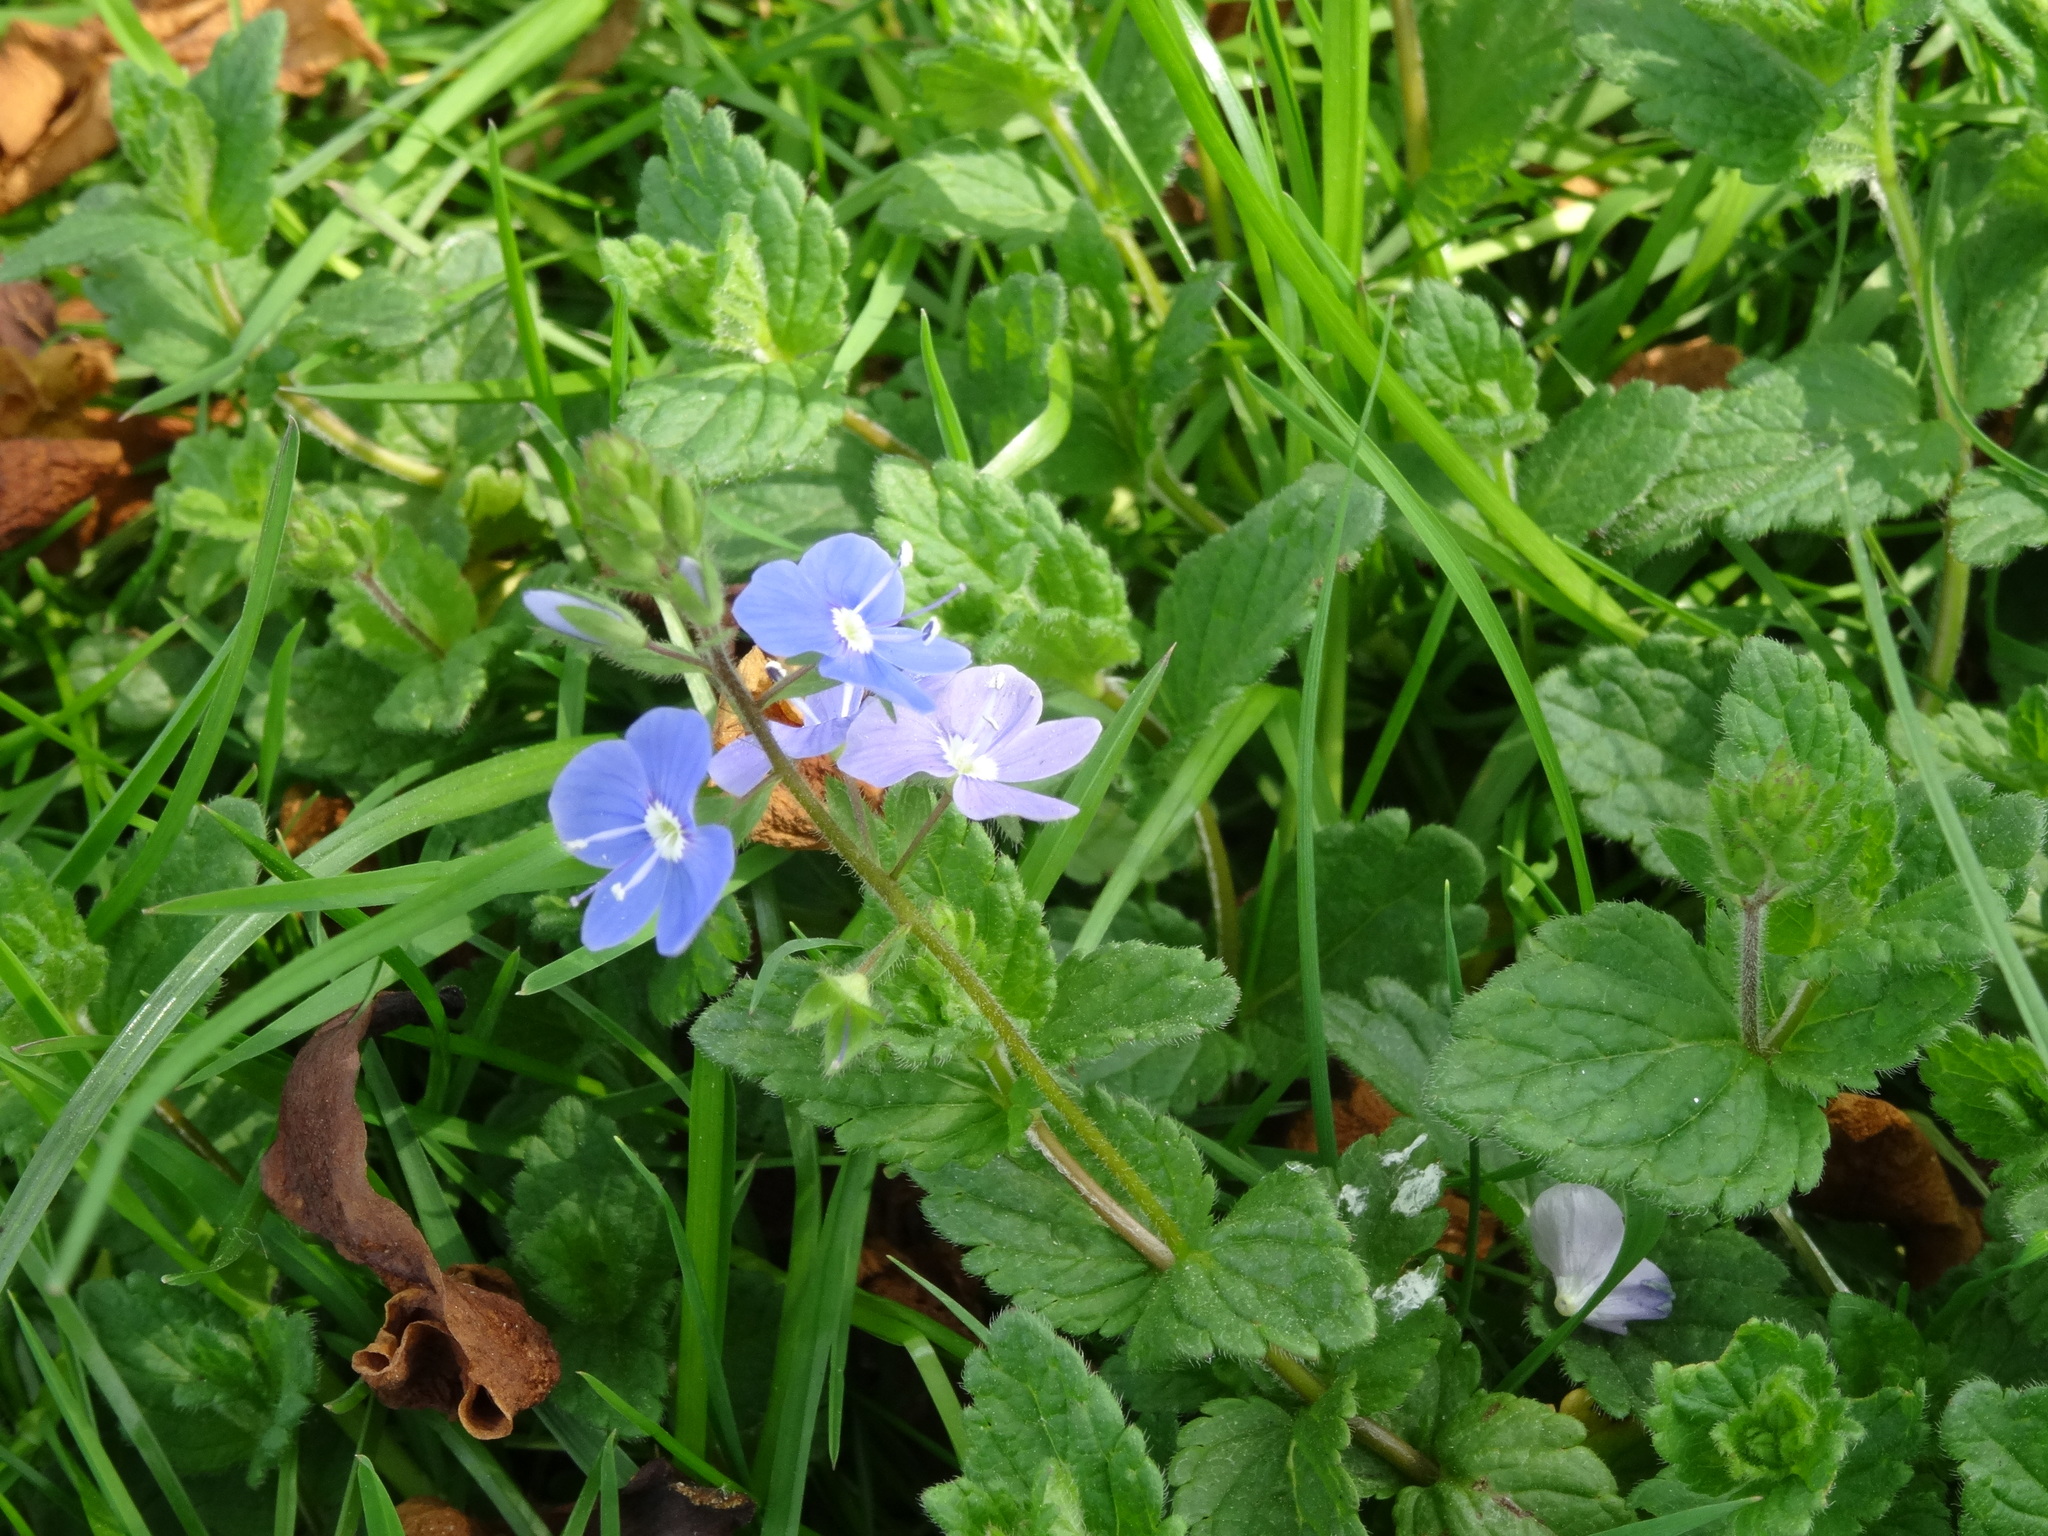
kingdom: Plantae
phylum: Tracheophyta
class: Magnoliopsida
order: Lamiales
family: Plantaginaceae
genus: Veronica
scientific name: Veronica chamaedrys
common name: Germander speedwell
